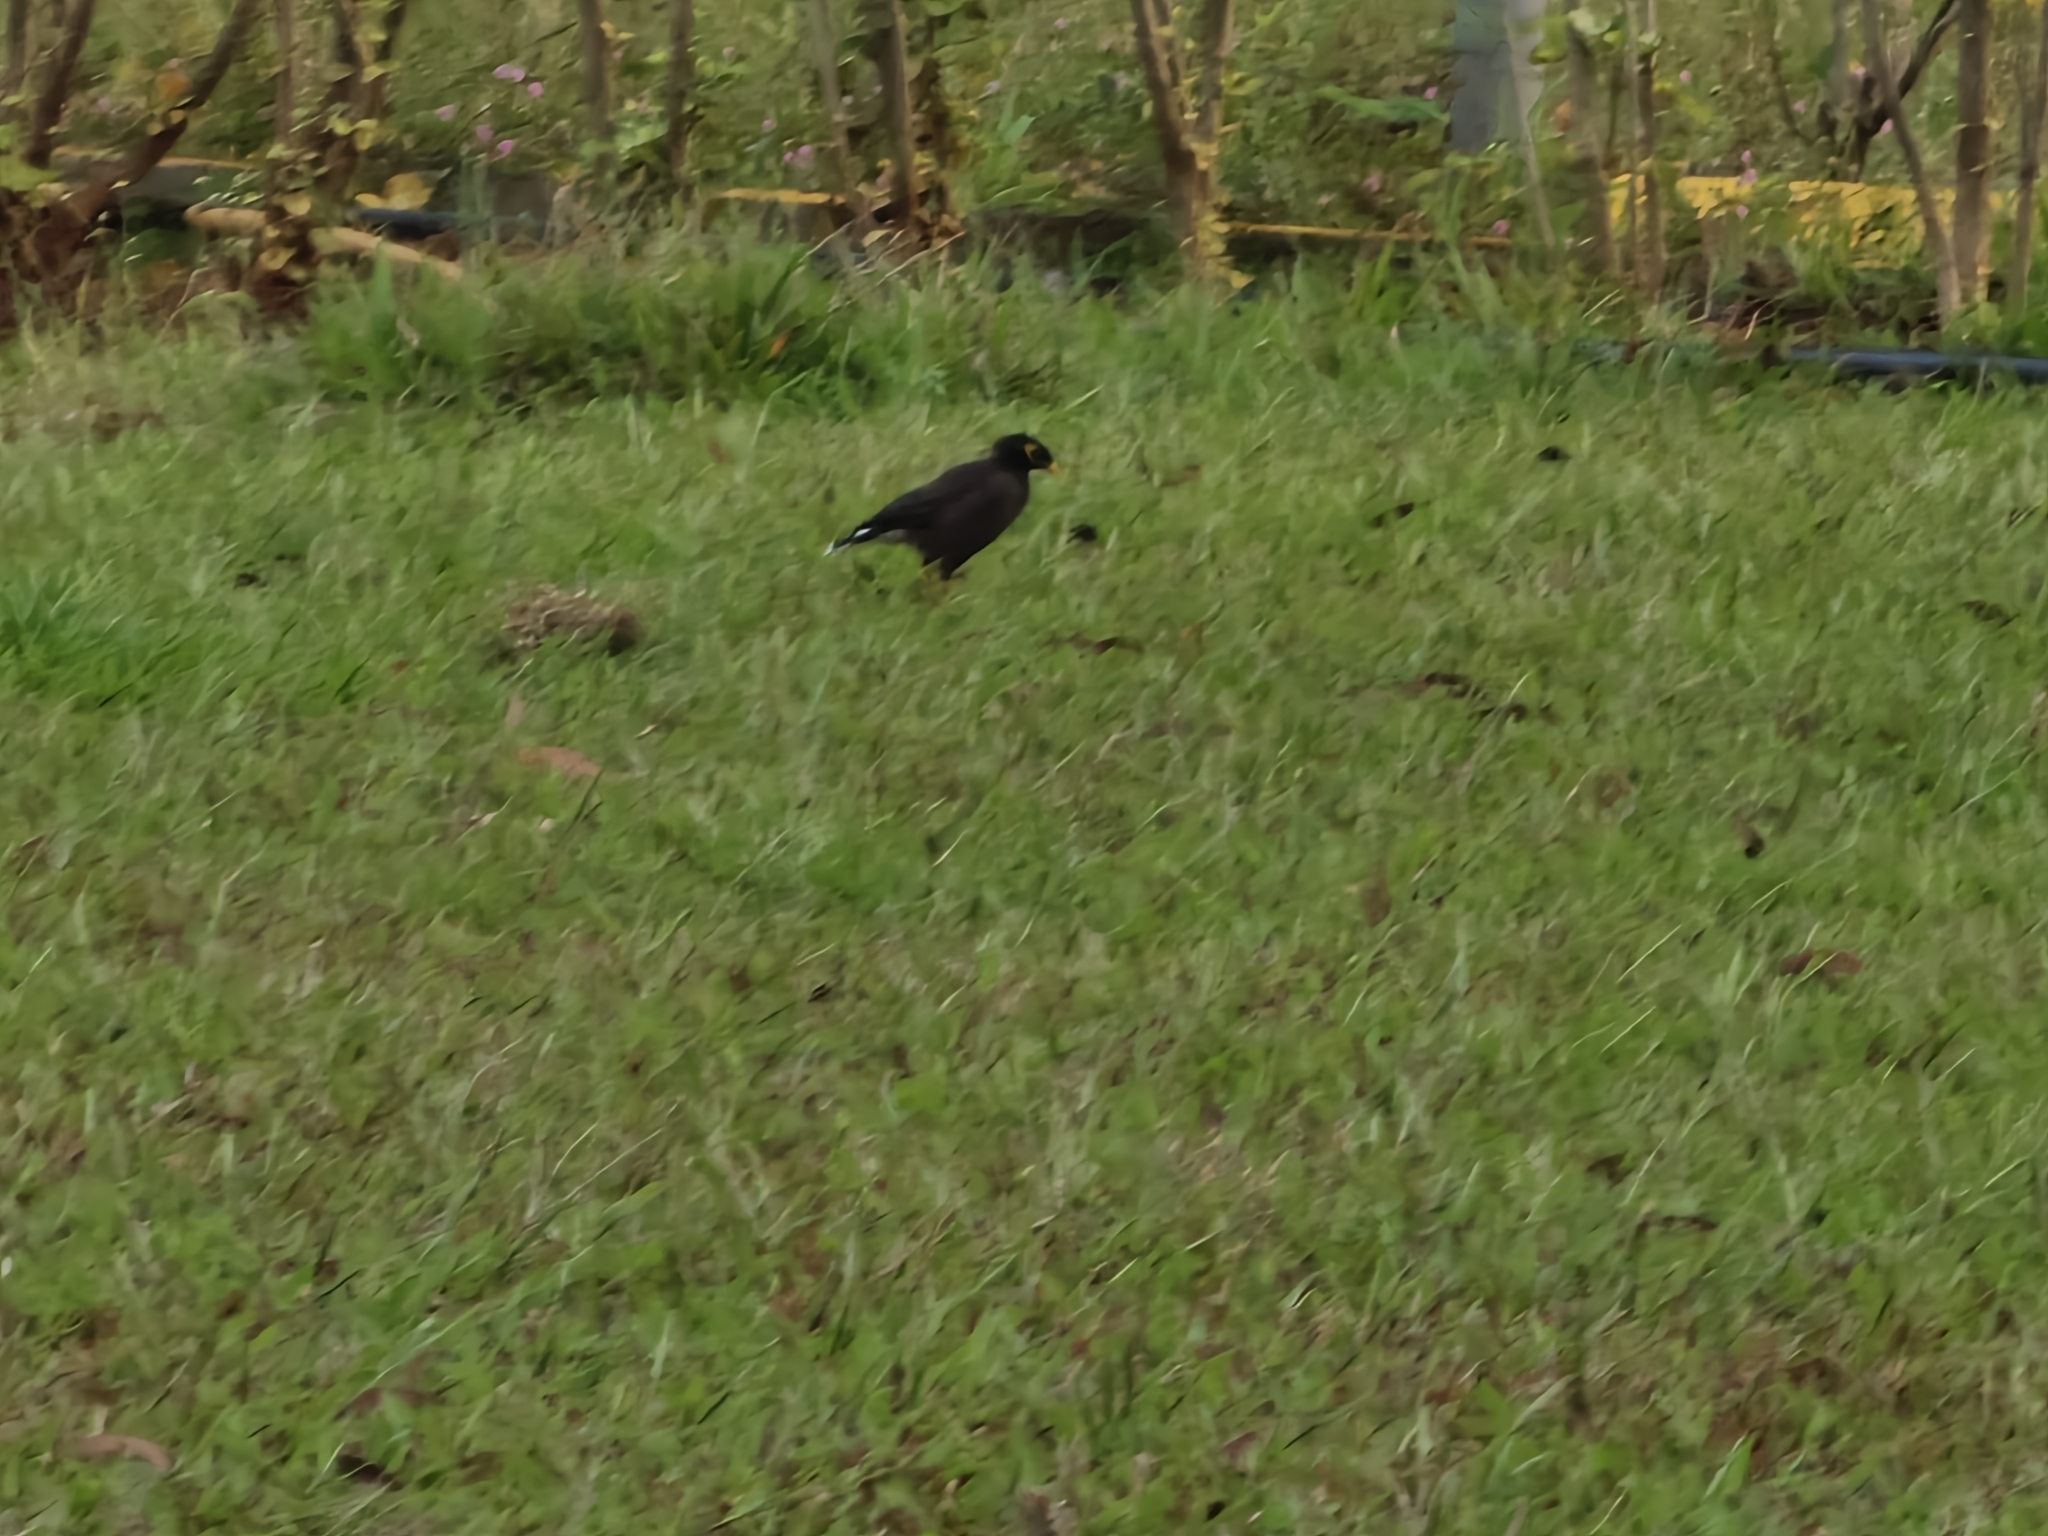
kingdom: Animalia
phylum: Chordata
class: Aves
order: Passeriformes
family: Sturnidae
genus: Acridotheres
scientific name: Acridotheres tristis
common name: Common myna
